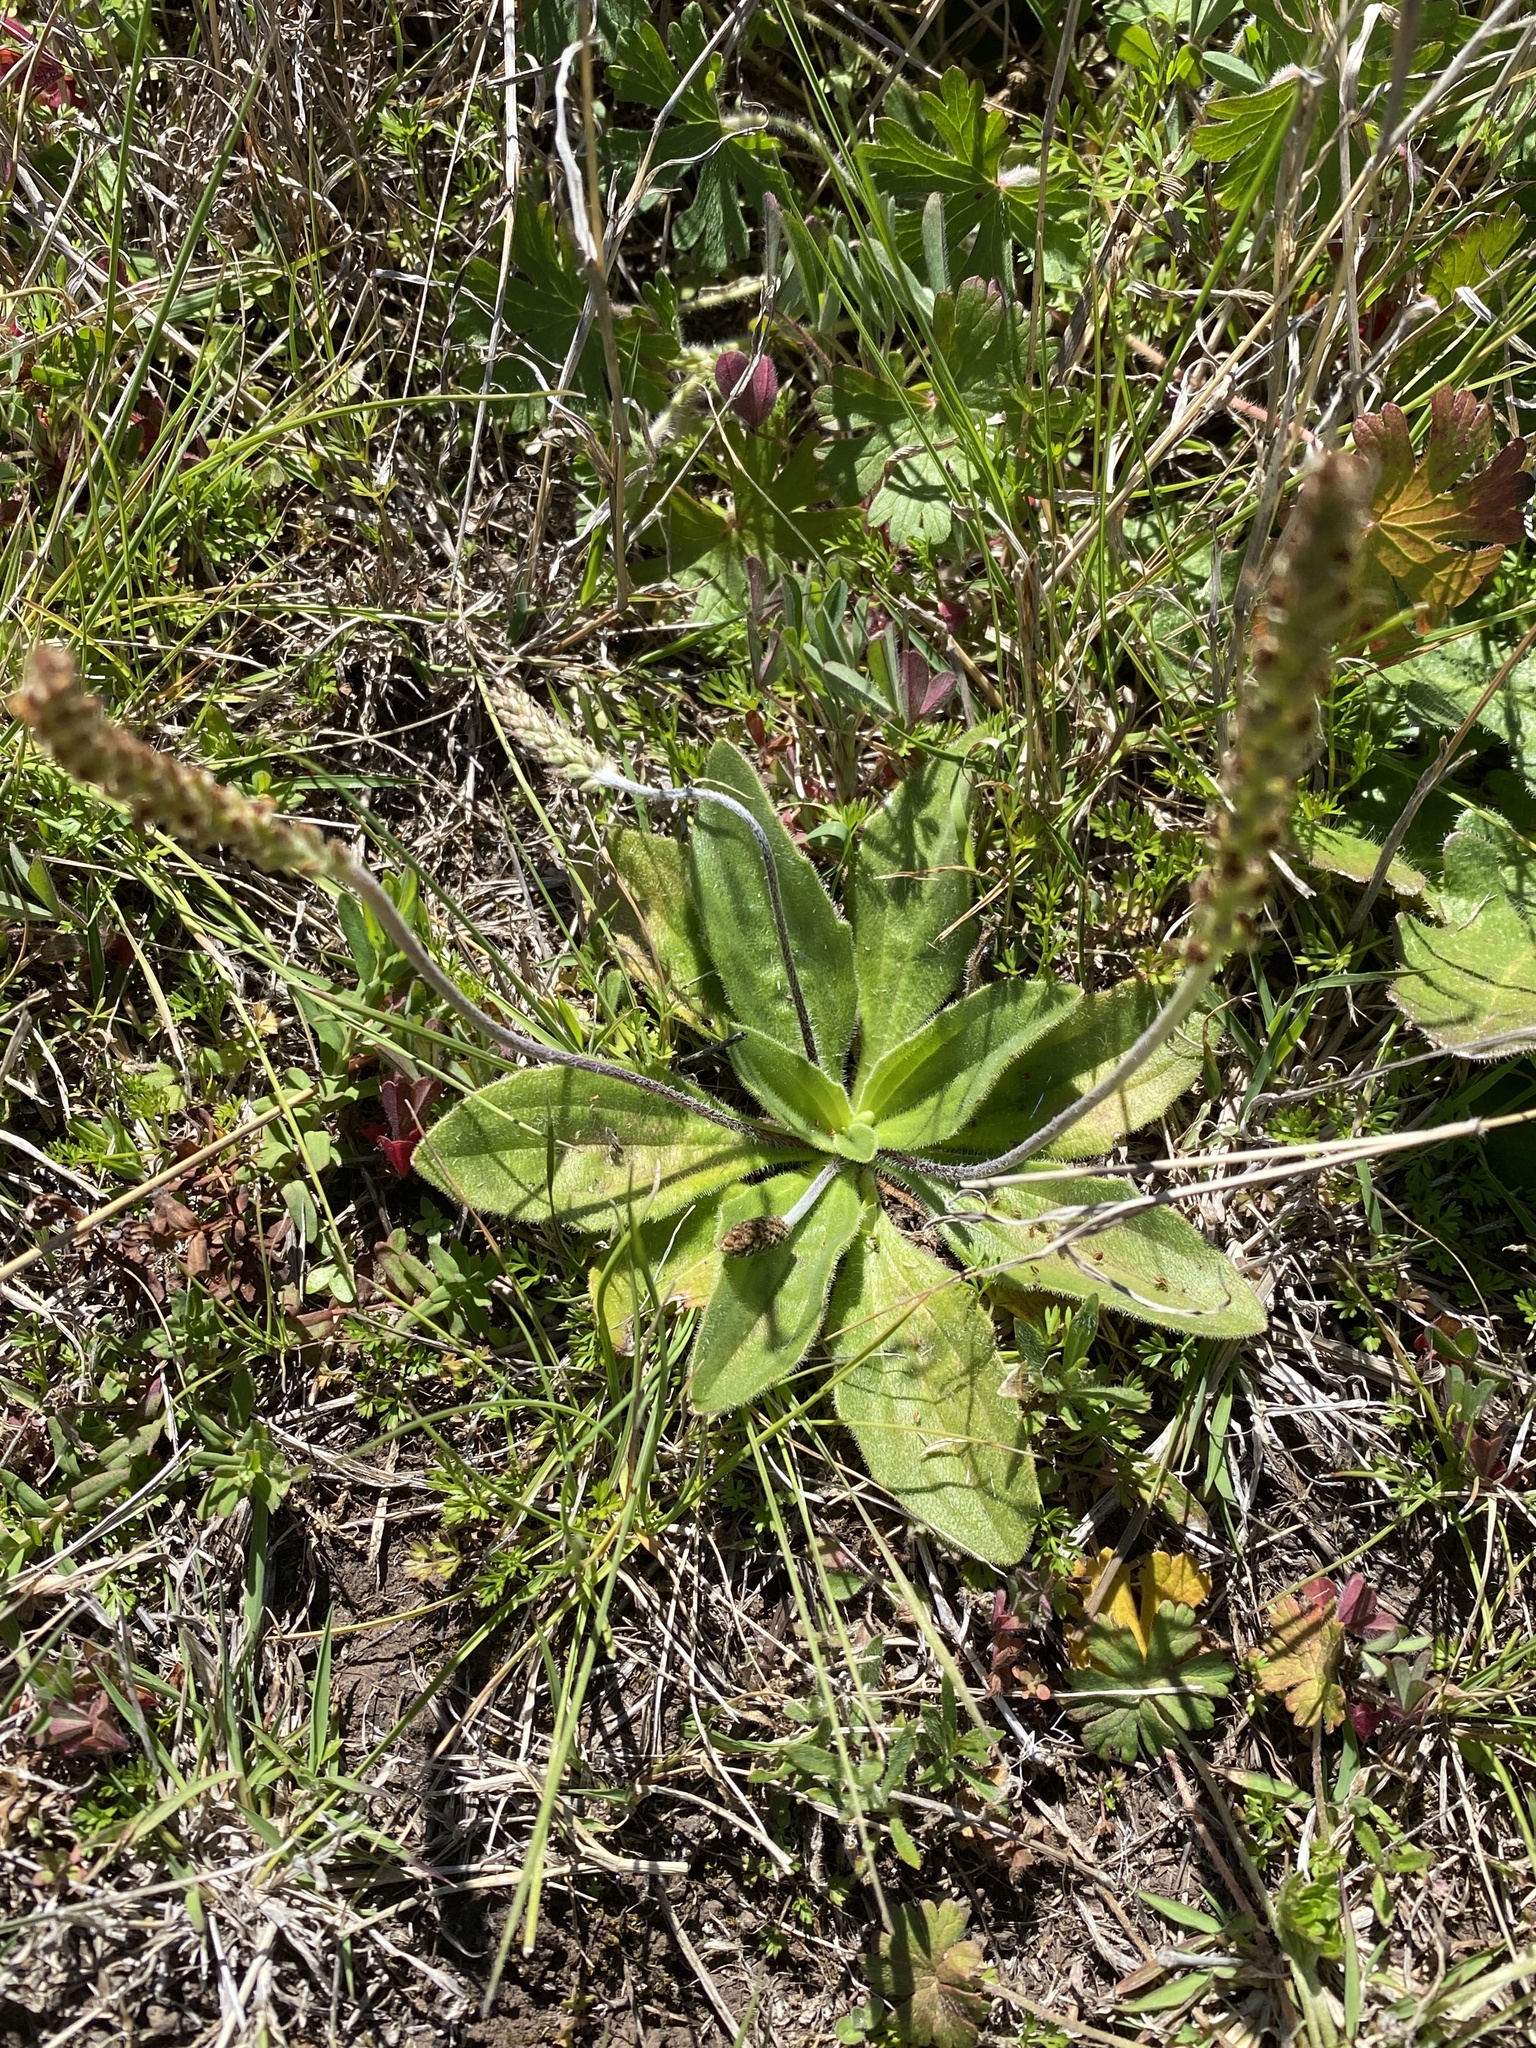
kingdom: Plantae
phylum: Tracheophyta
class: Magnoliopsida
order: Lamiales
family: Plantaginaceae
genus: Plantago
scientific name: Plantago debilis
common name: Weak plantain
